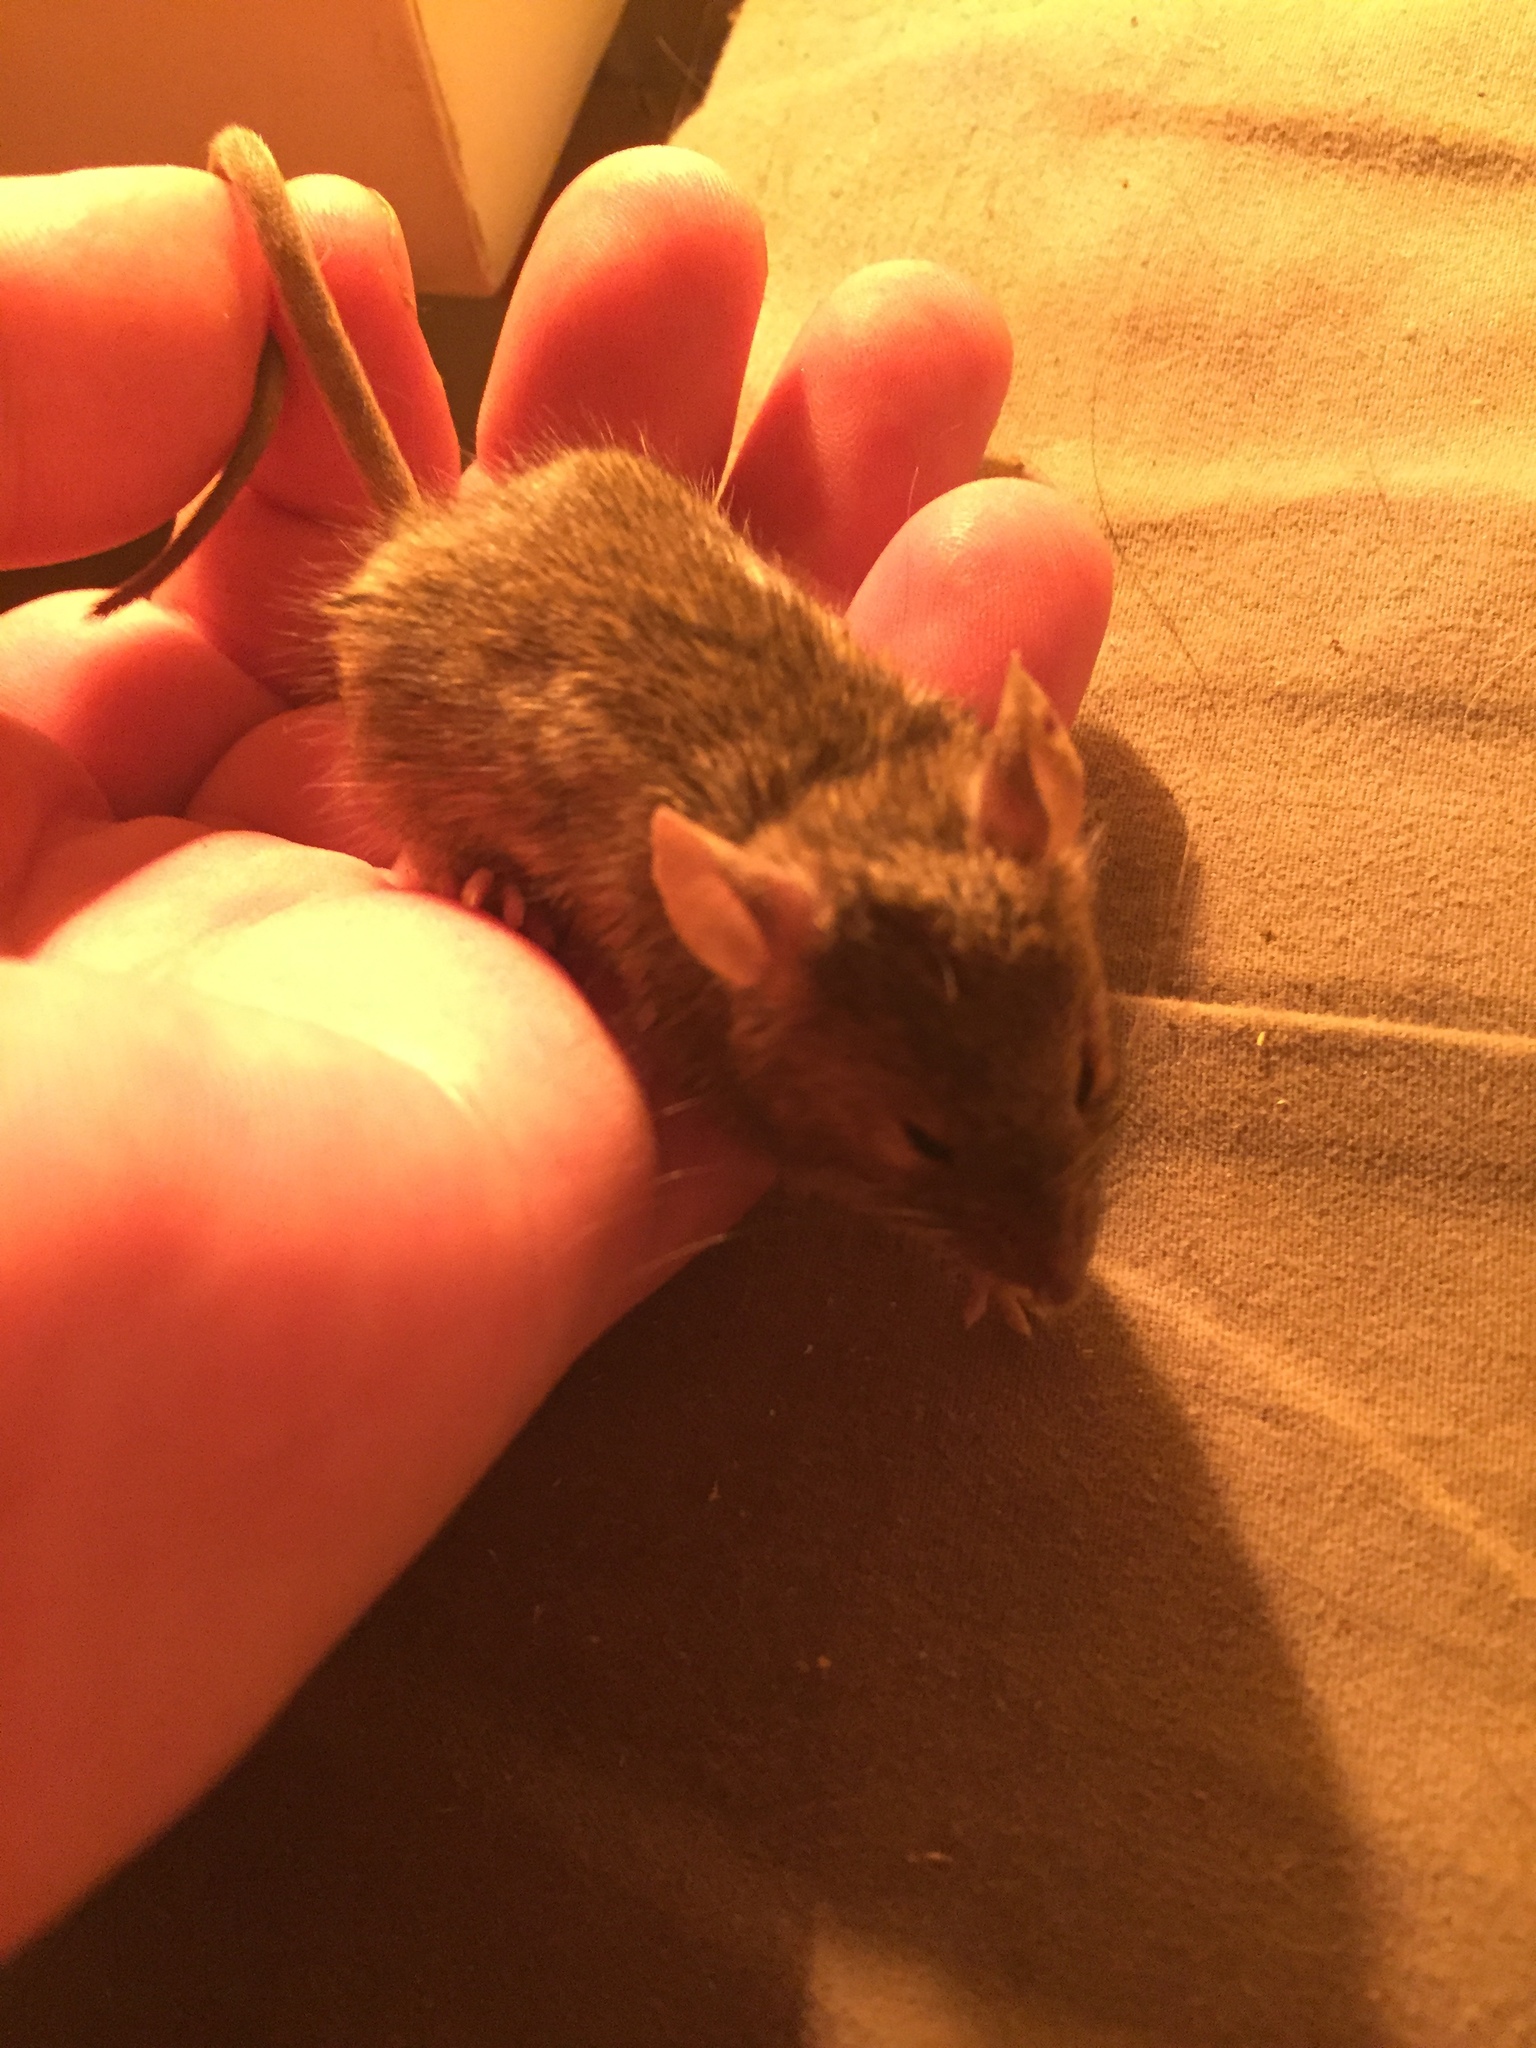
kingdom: Animalia
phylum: Chordata
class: Mammalia
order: Rodentia
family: Muridae
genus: Mus
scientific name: Mus musculus
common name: House mouse
